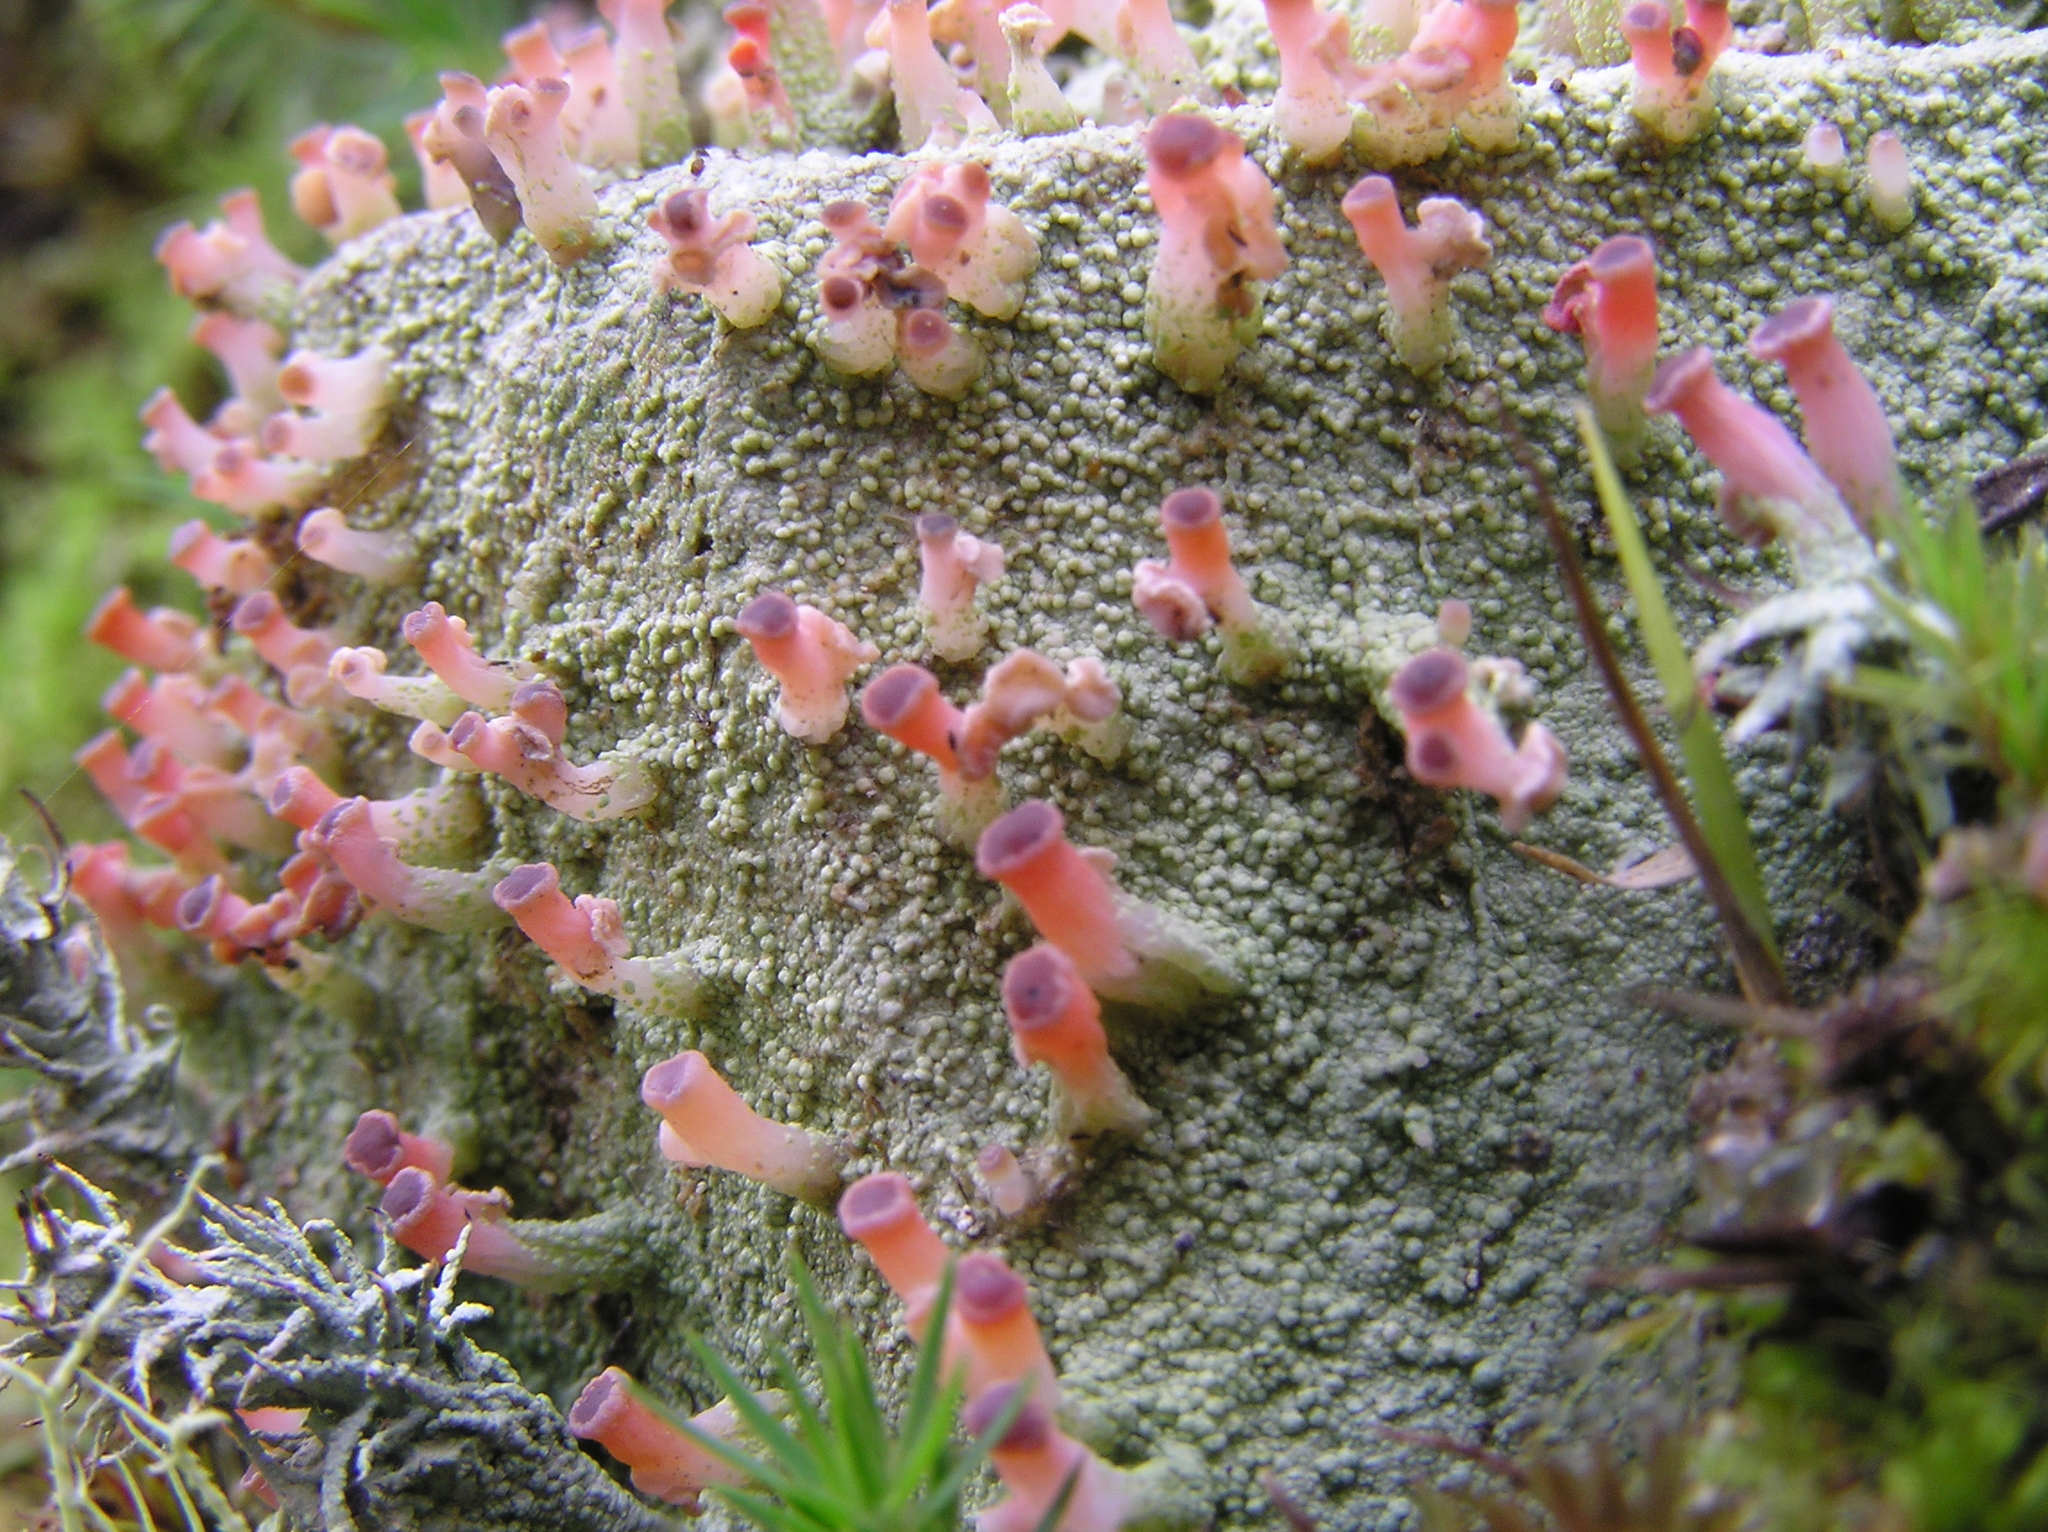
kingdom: Fungi
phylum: Ascomycota
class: Lecanoromycetes
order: Baeomycetales
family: Baeomycetaceae
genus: Baeomyces
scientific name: Baeomyces heteromorphus
